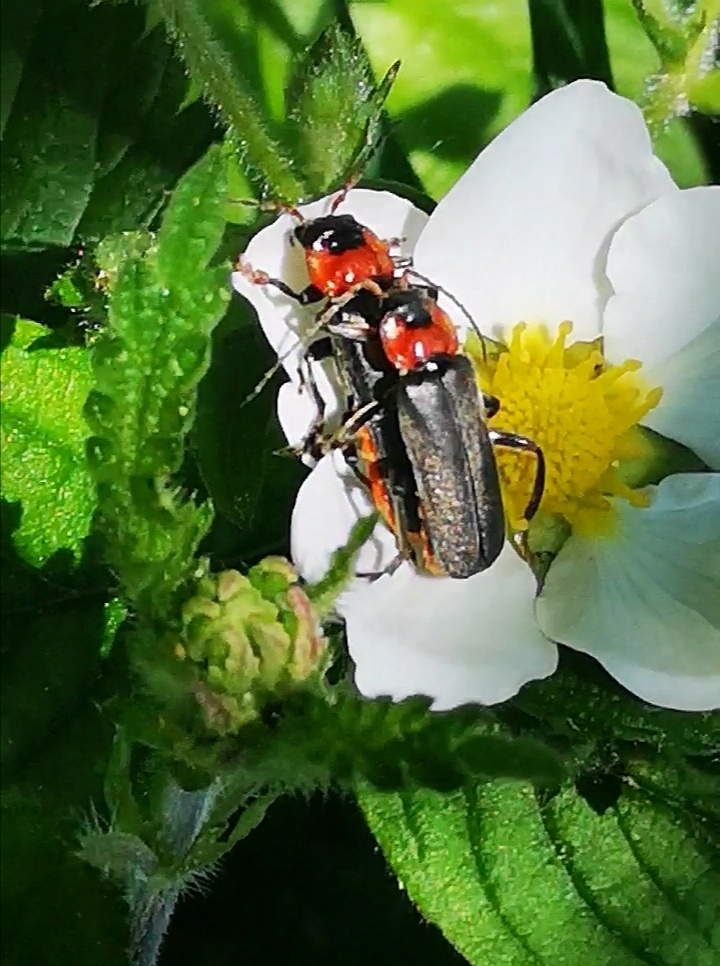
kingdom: Animalia
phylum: Arthropoda
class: Insecta
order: Coleoptera
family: Cantharidae
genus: Cantharis
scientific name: Cantharis fusca
